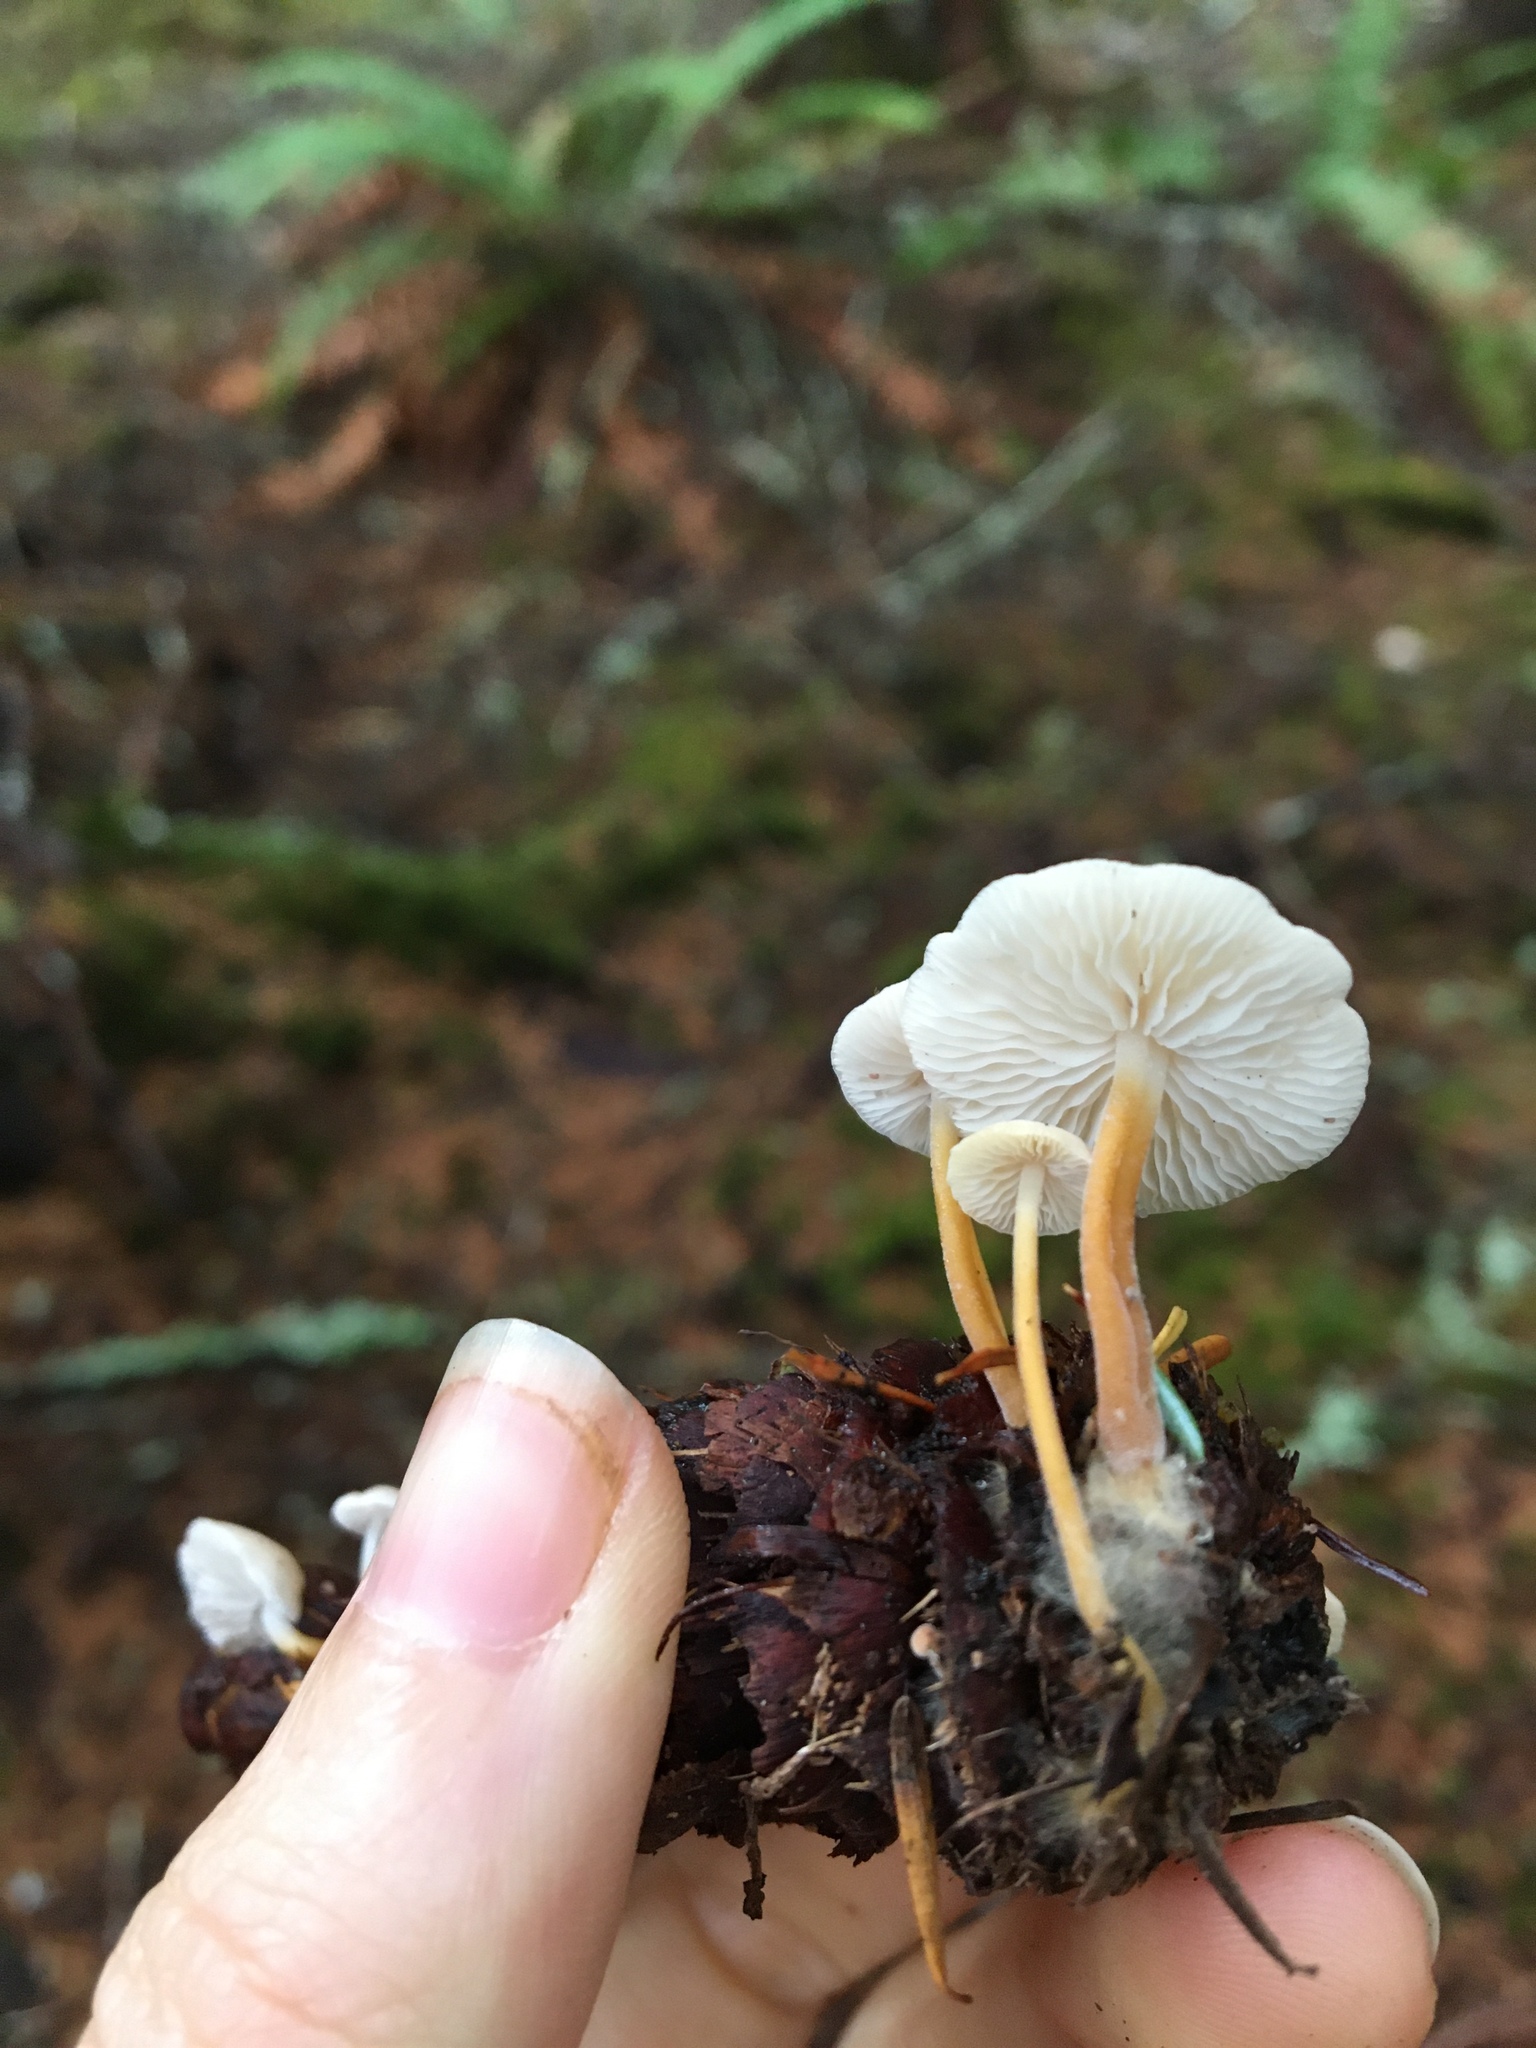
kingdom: Fungi
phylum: Basidiomycota
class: Agaricomycetes
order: Agaricales
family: Physalacriaceae
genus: Strobilurus
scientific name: Strobilurus trullisatus
